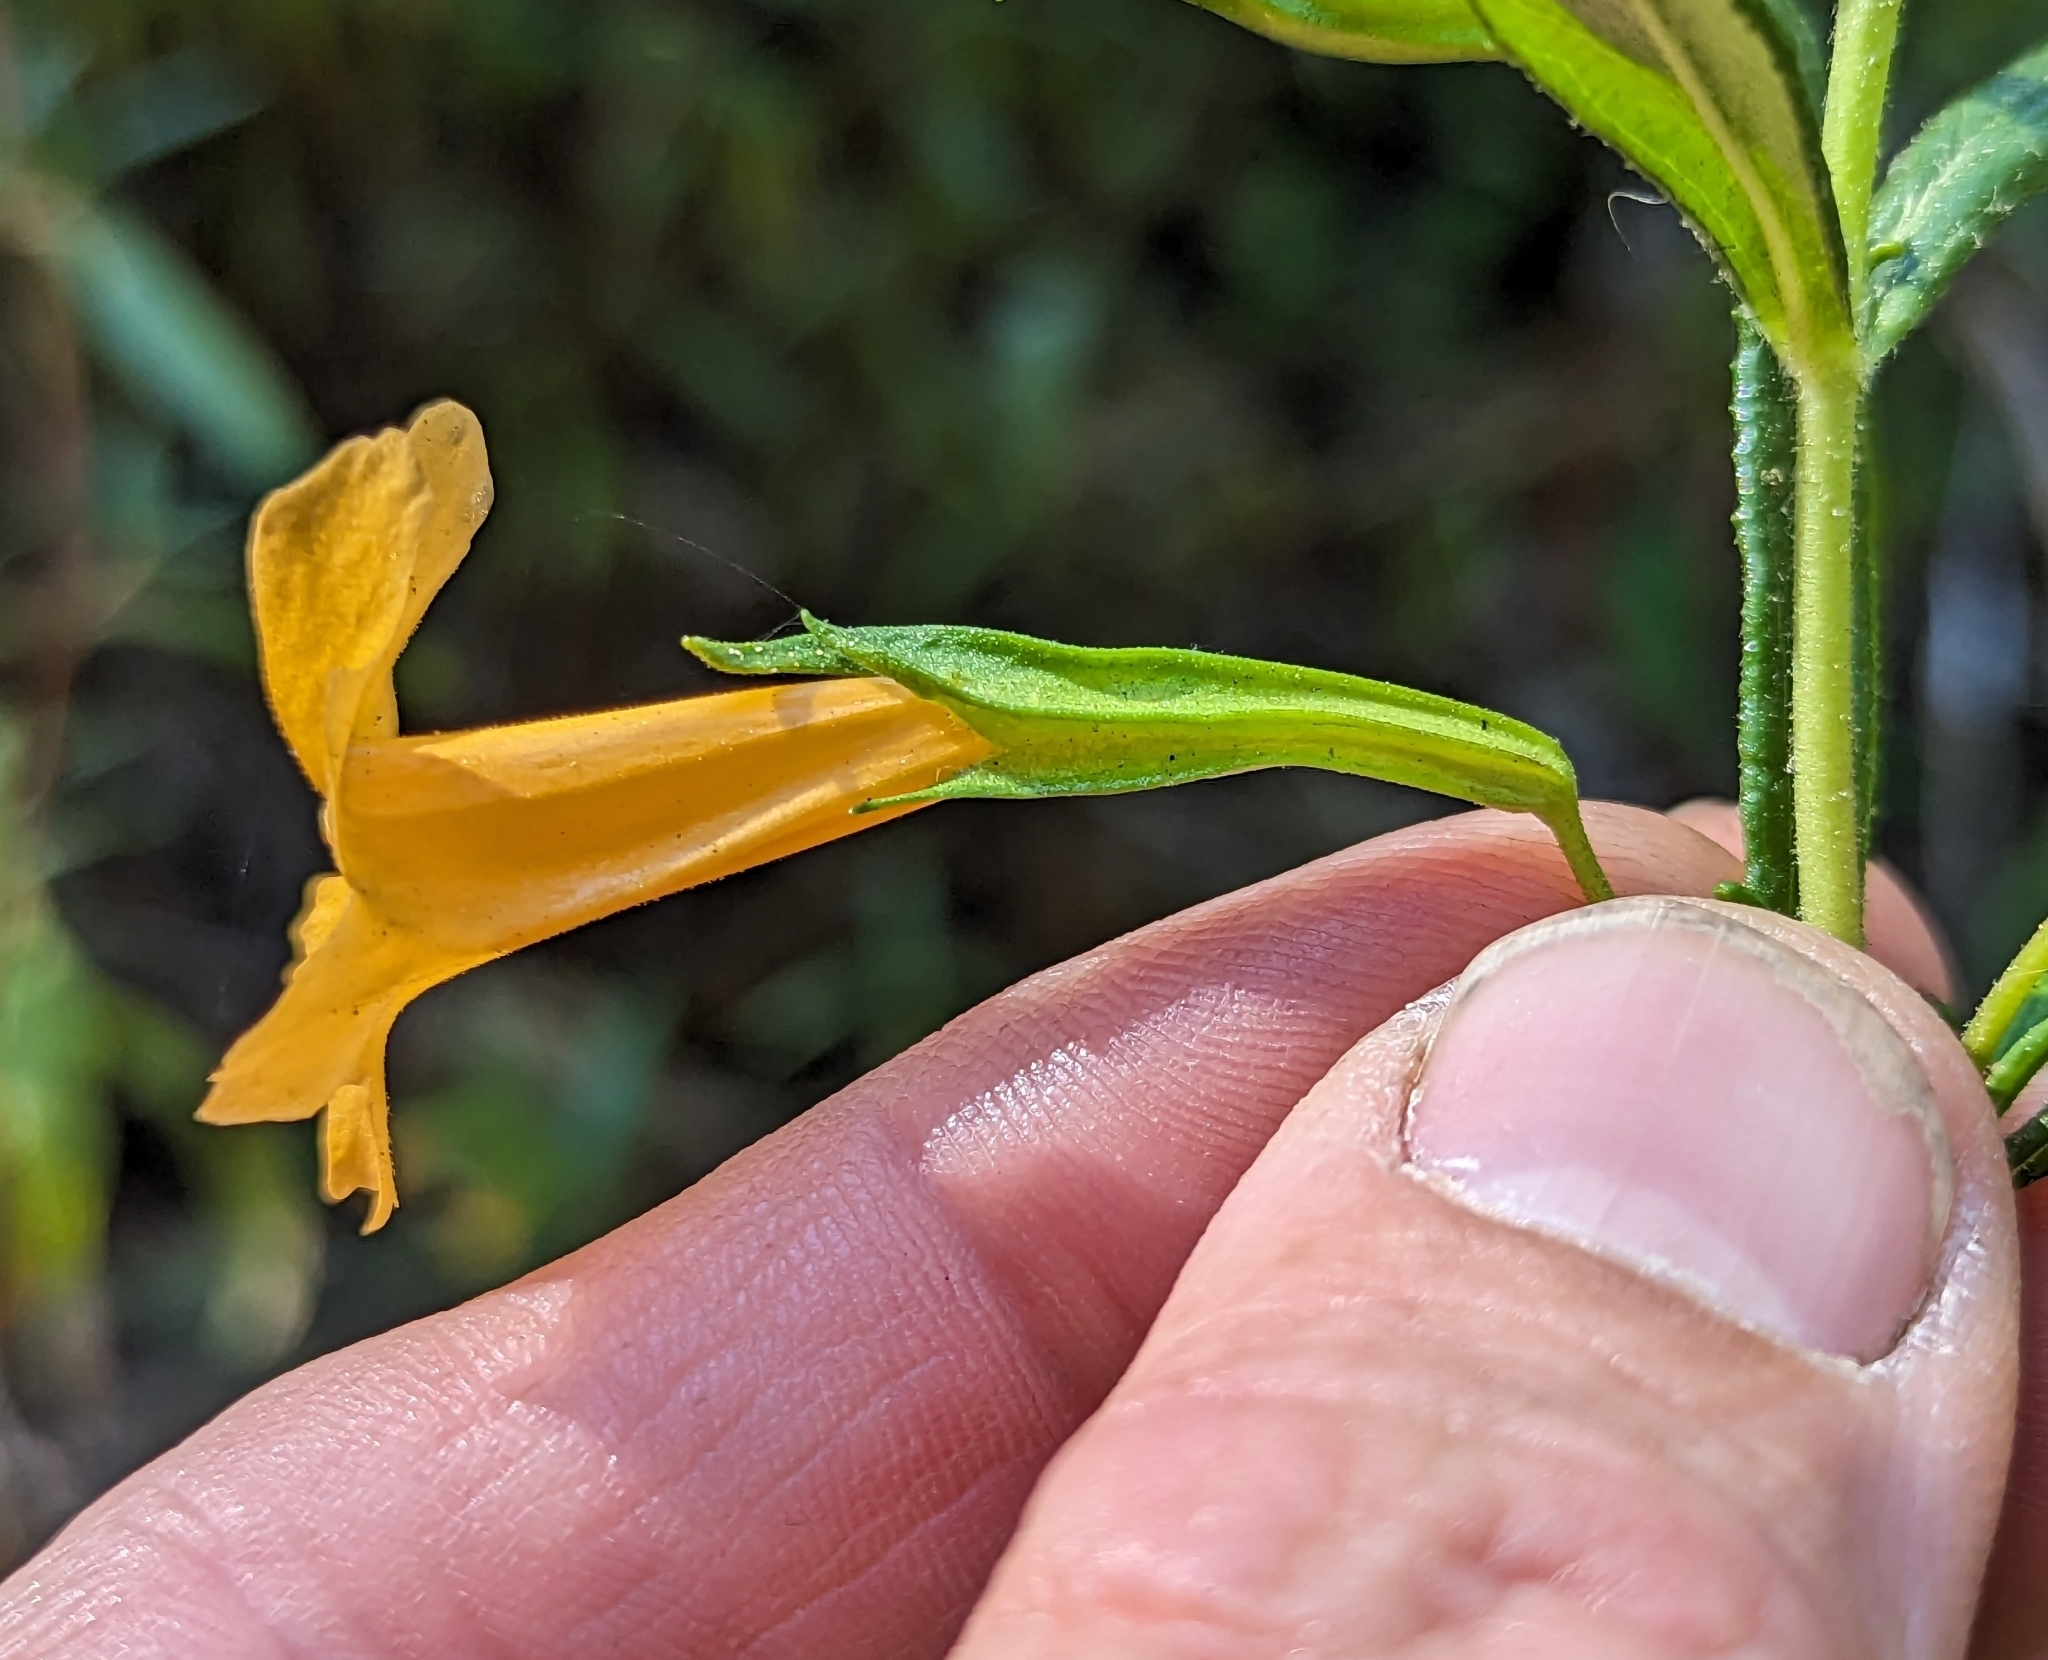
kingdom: Plantae
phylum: Tracheophyta
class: Magnoliopsida
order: Lamiales
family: Phrymaceae
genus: Diplacus
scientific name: Diplacus aurantiacus
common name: Bush monkey-flower
